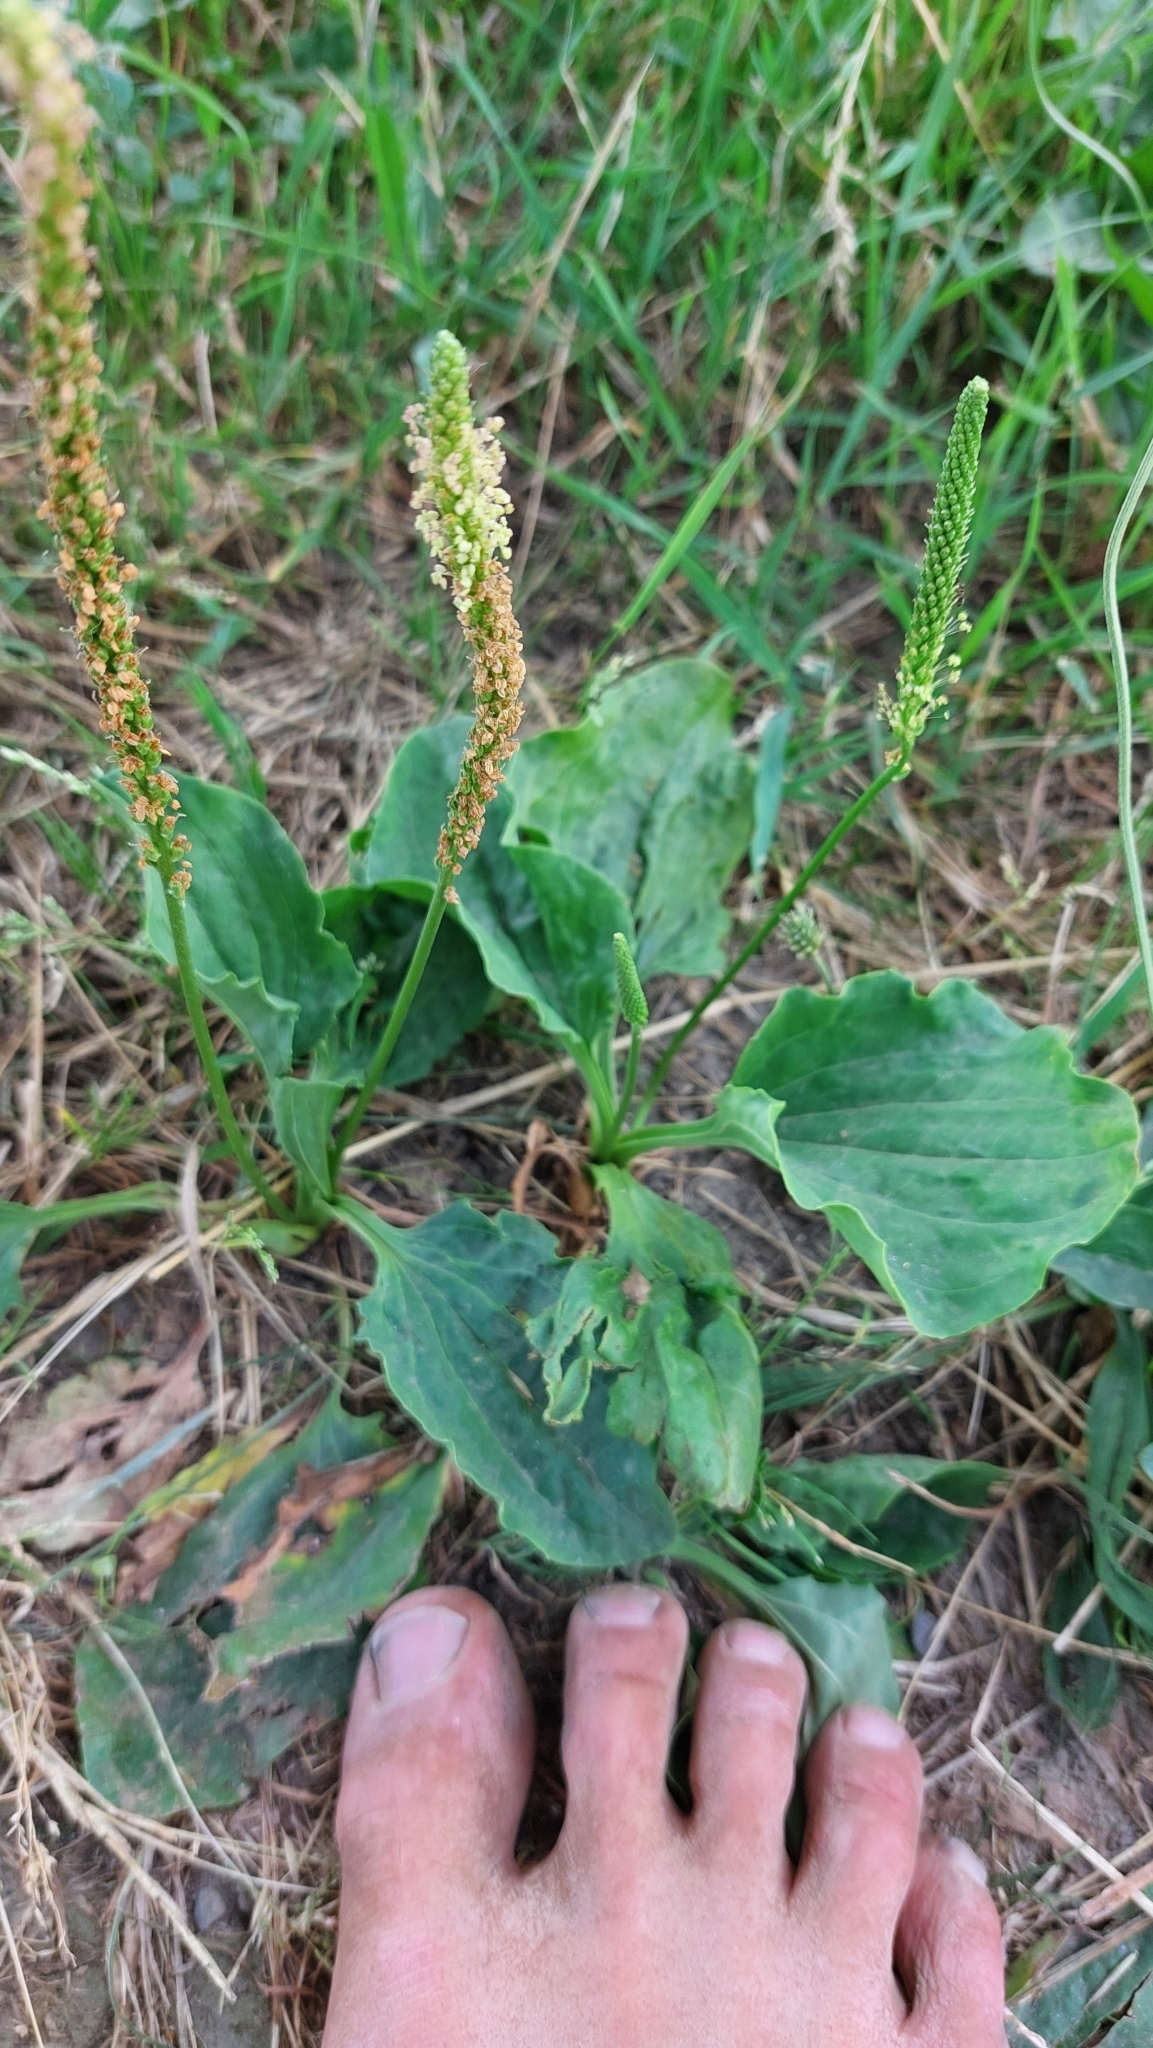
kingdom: Plantae
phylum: Tracheophyta
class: Magnoliopsida
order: Lamiales
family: Plantaginaceae
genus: Plantago
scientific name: Plantago major
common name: Common plantain
